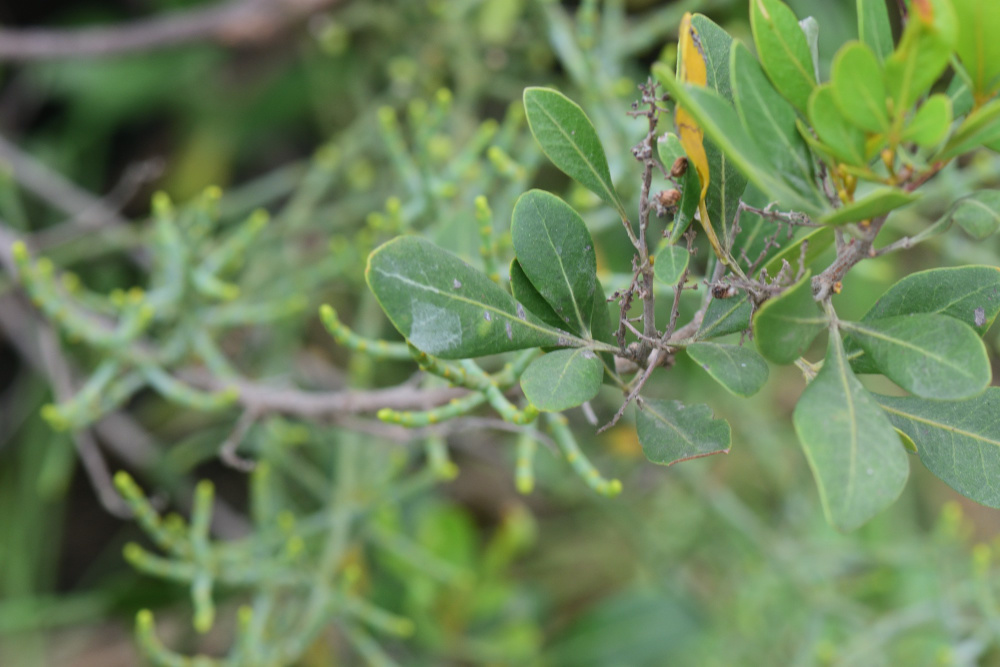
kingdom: Plantae
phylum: Tracheophyta
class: Magnoliopsida
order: Sapindales
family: Anacardiaceae
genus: Searsia
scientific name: Searsia lucida
